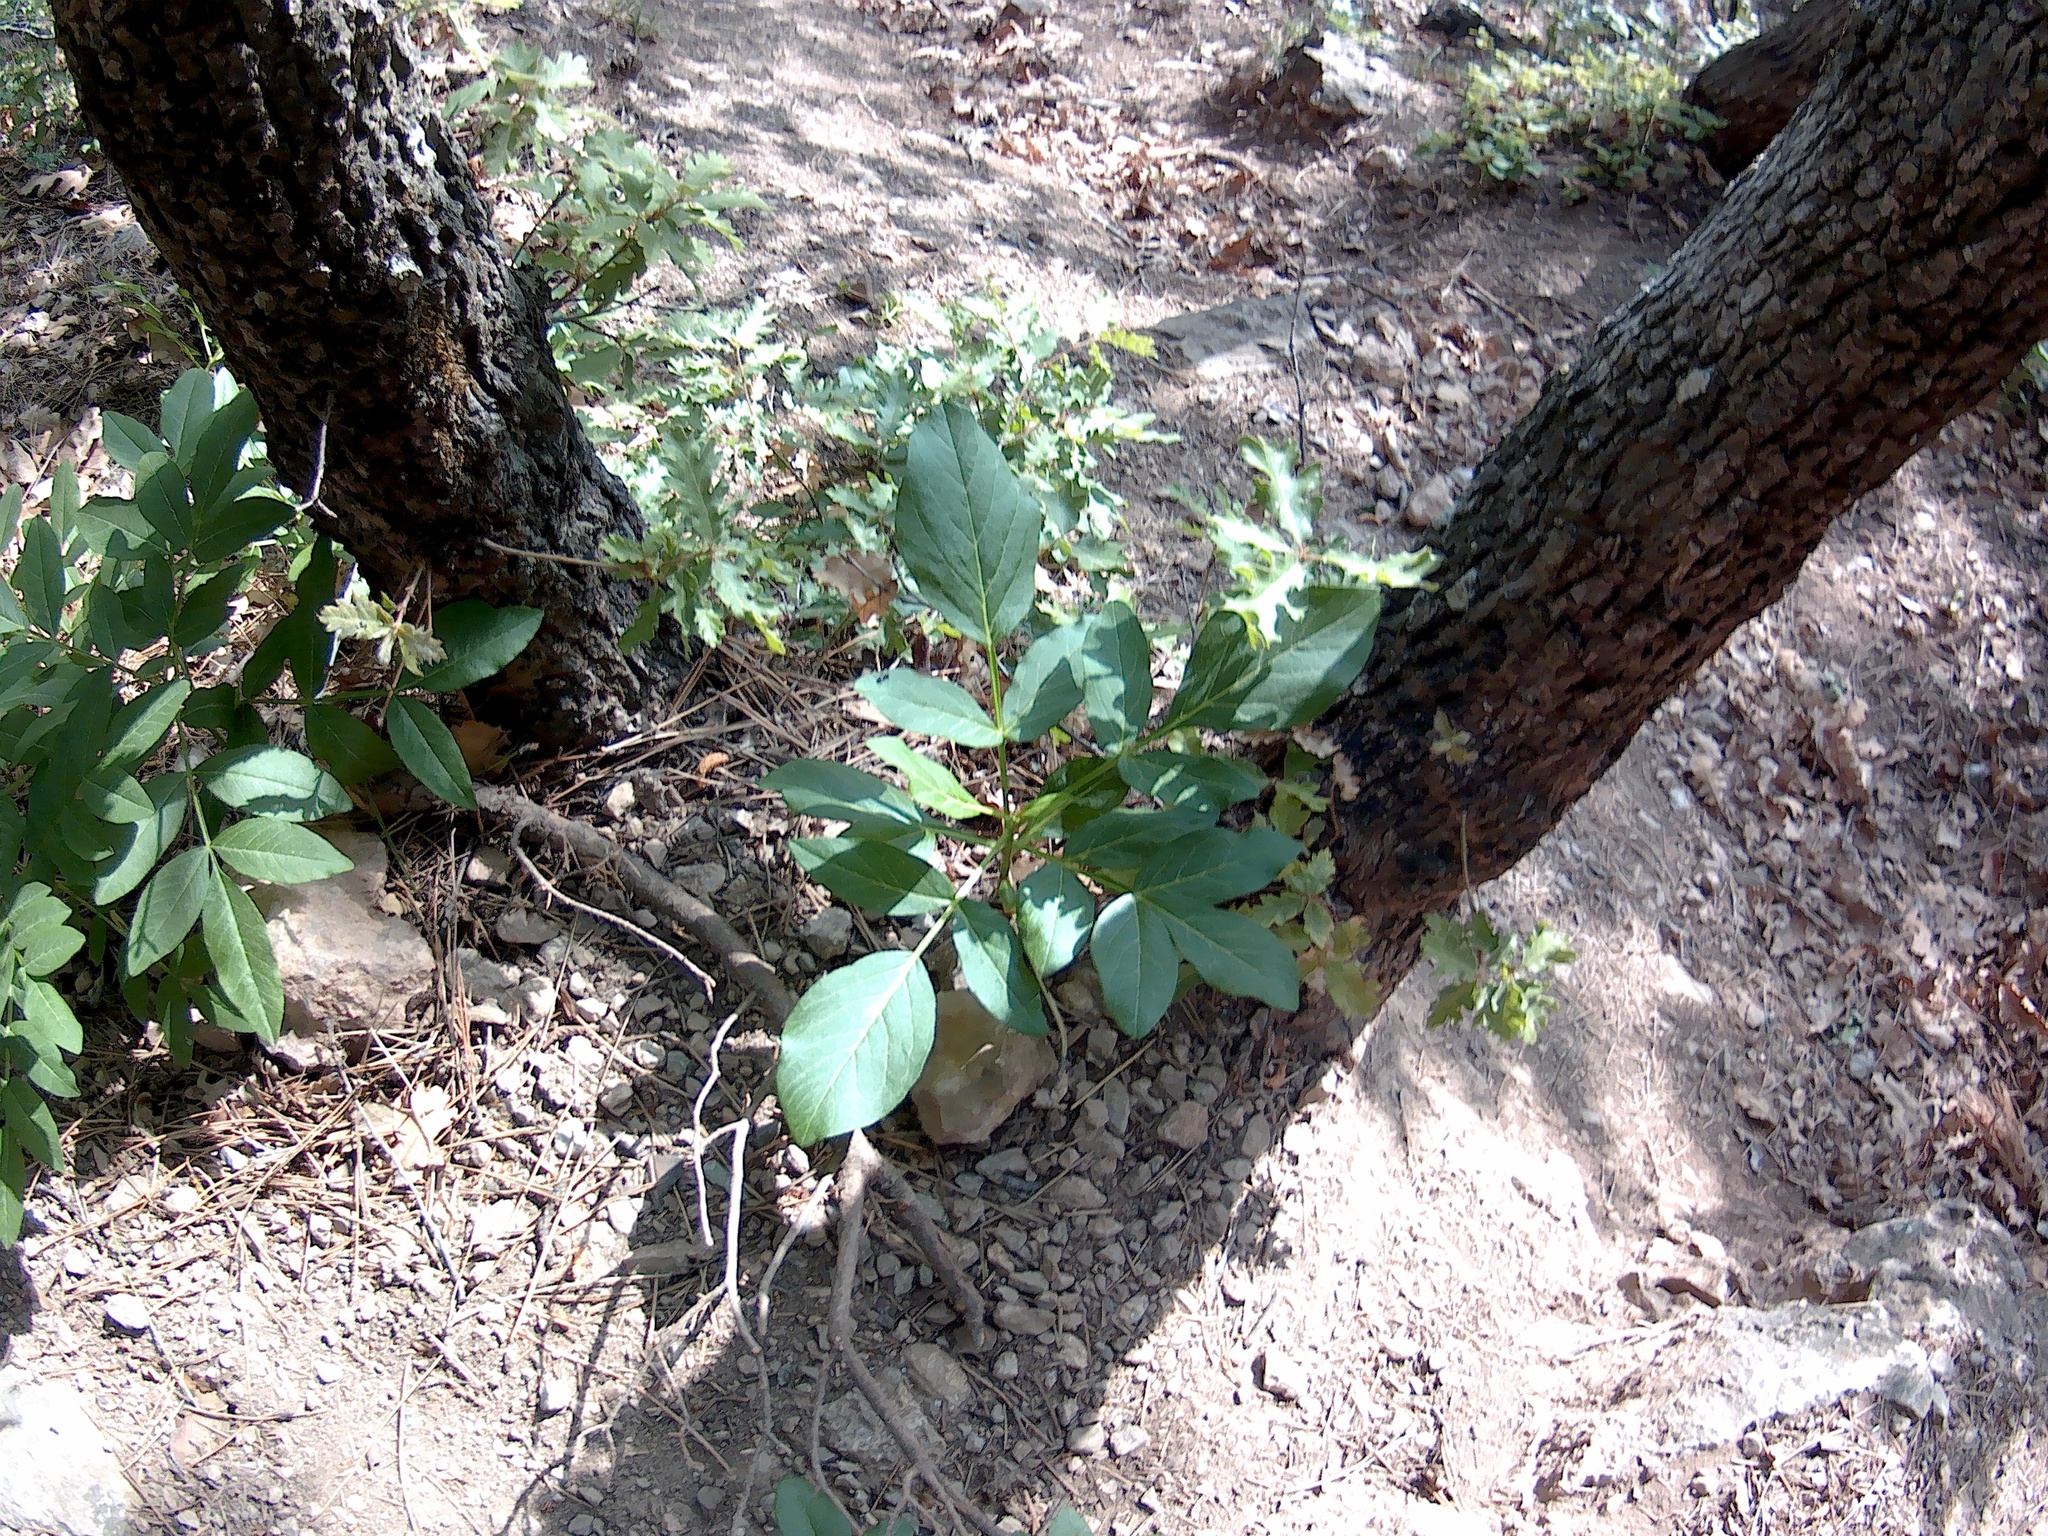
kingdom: Plantae
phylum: Tracheophyta
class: Magnoliopsida
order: Sapindales
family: Rutaceae
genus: Dictamnus
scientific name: Dictamnus albus
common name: Gasplant
